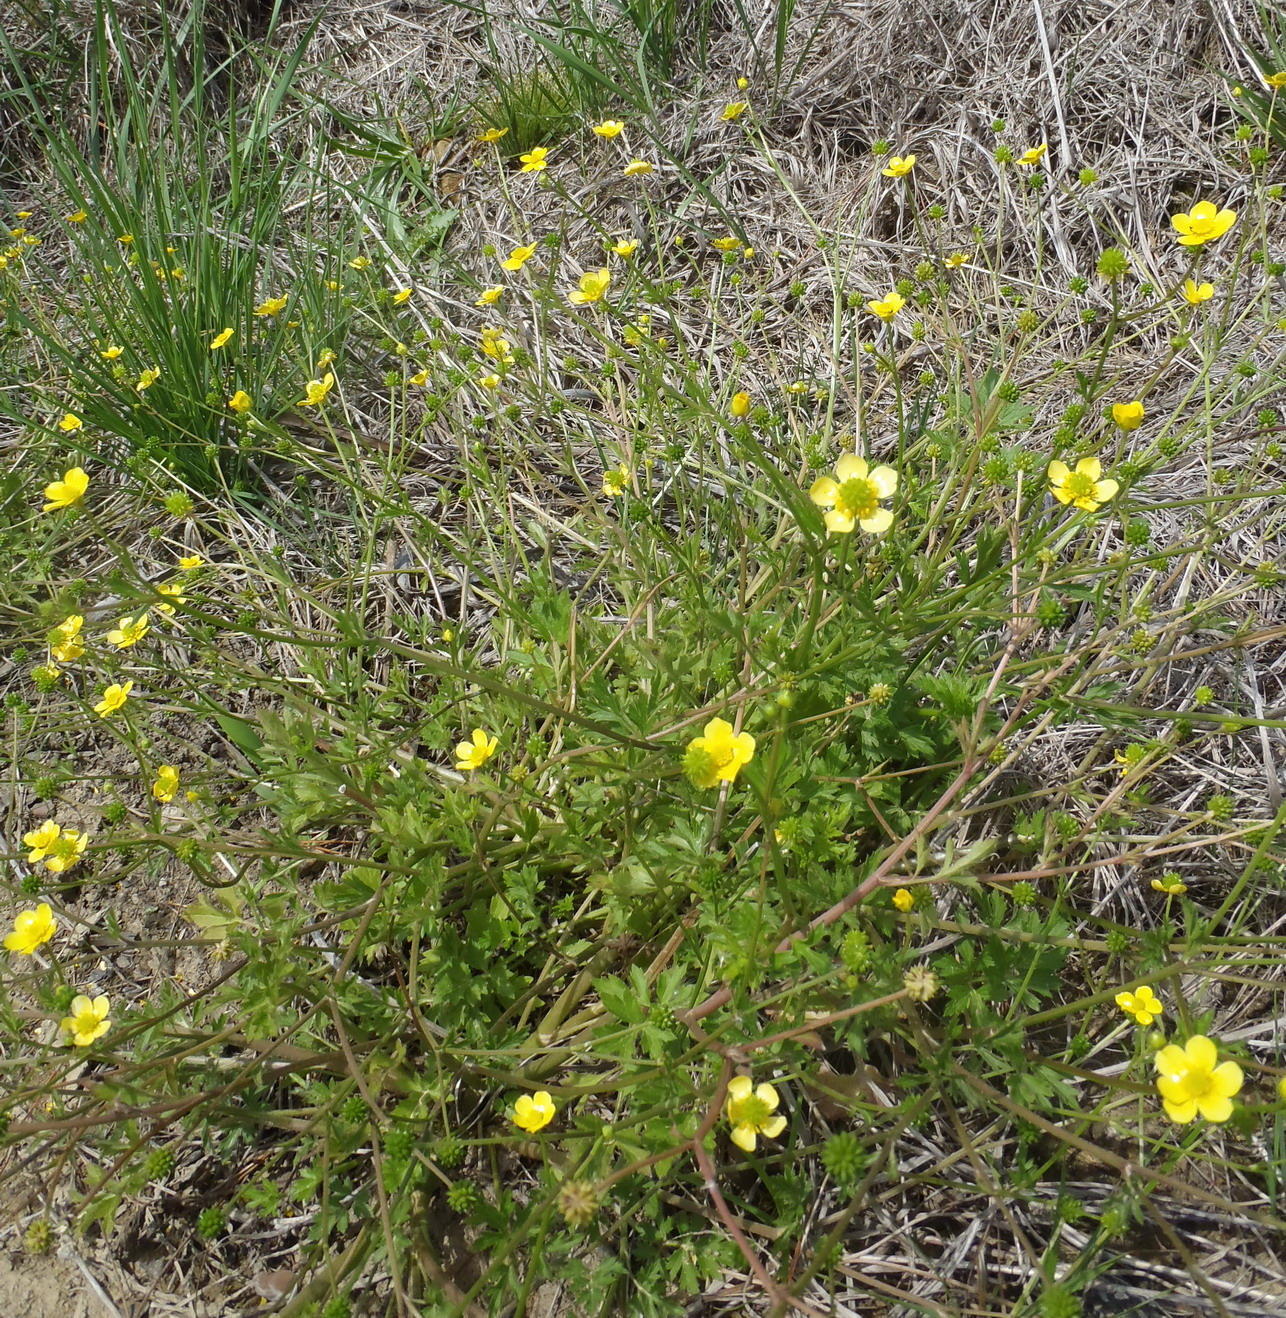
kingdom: Plantae
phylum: Tracheophyta
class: Magnoliopsida
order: Ranunculales
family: Ranunculaceae
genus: Ranunculus
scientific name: Ranunculus multifidus
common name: Wild buttercup
